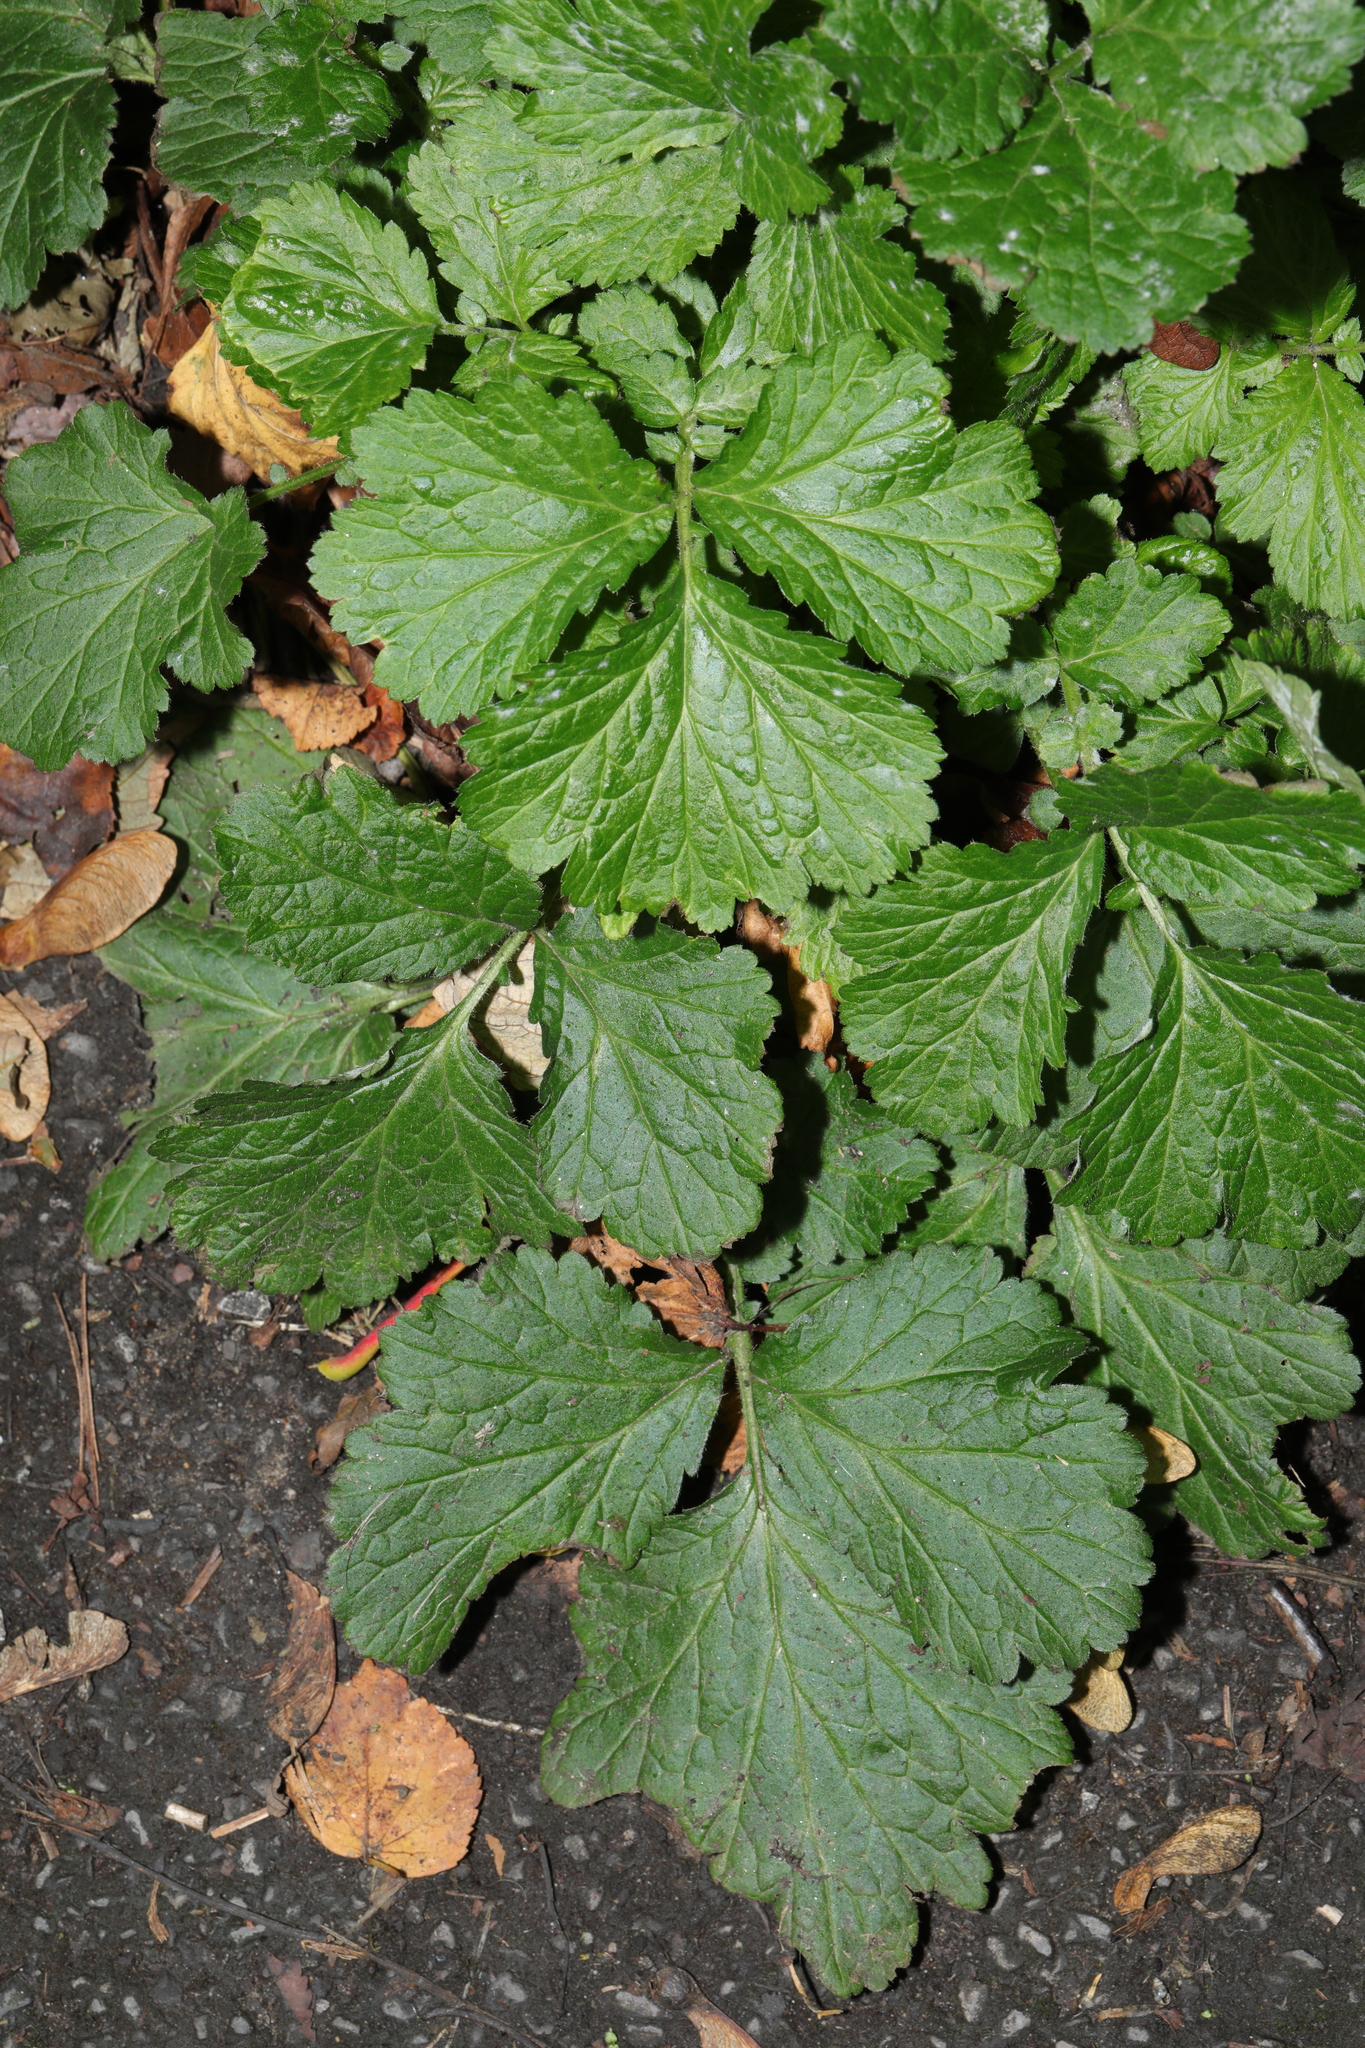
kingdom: Plantae
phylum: Tracheophyta
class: Magnoliopsida
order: Rosales
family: Rosaceae
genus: Geum
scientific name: Geum urbanum
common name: Wood avens
